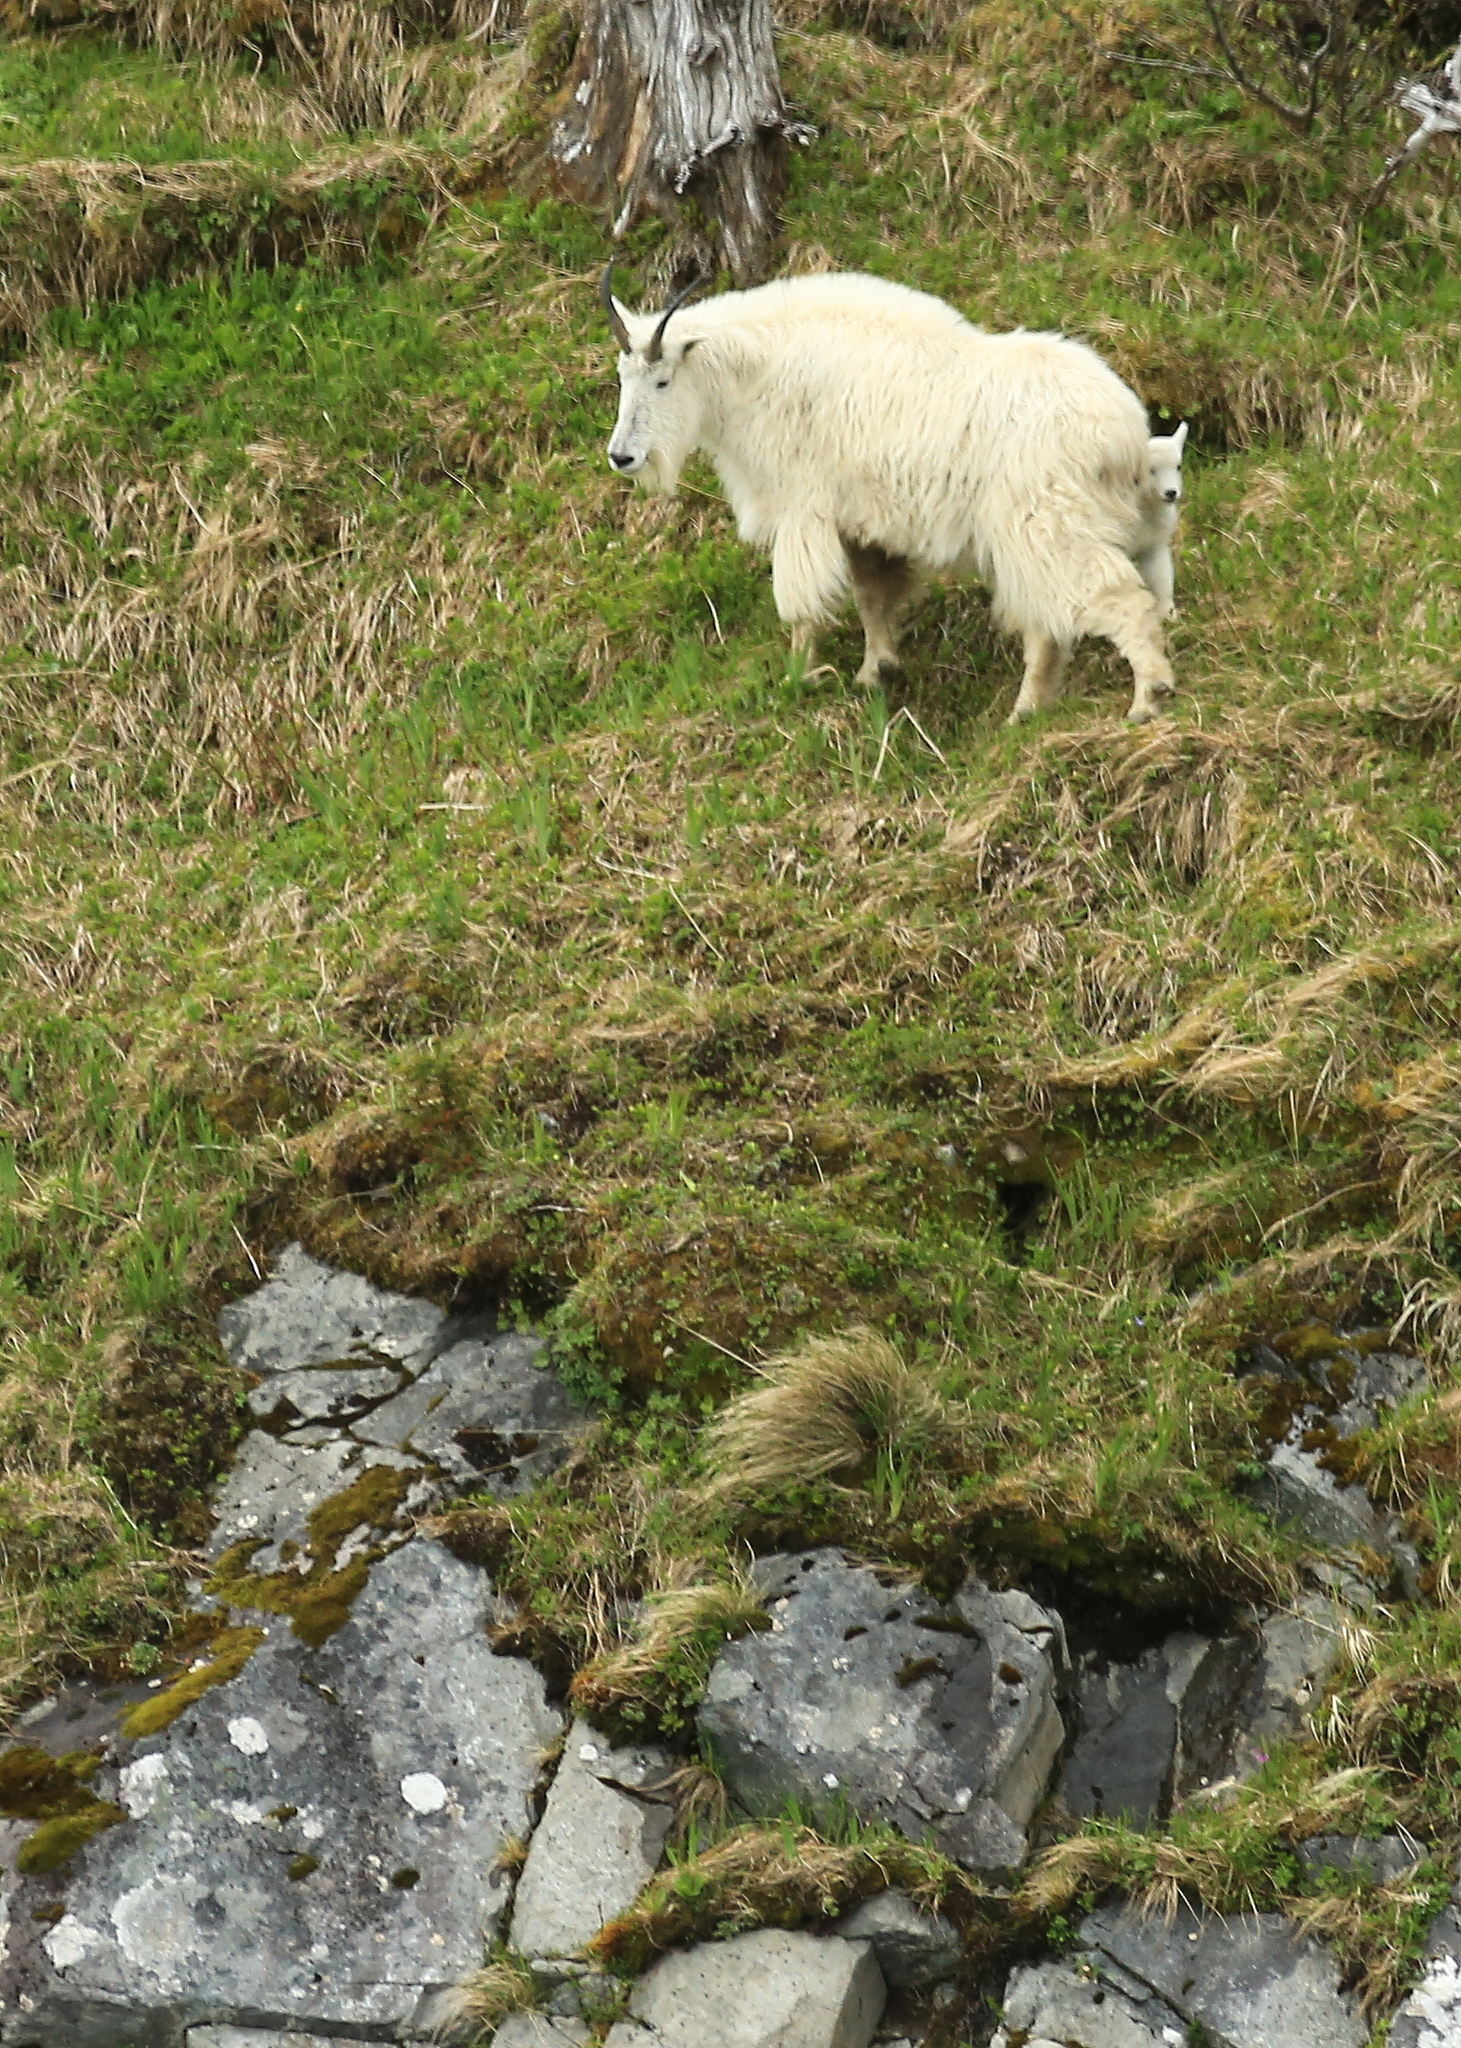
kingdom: Animalia
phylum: Chordata
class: Mammalia
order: Artiodactyla
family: Bovidae
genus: Oreamnos
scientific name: Oreamnos americanus
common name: Mountain goat
